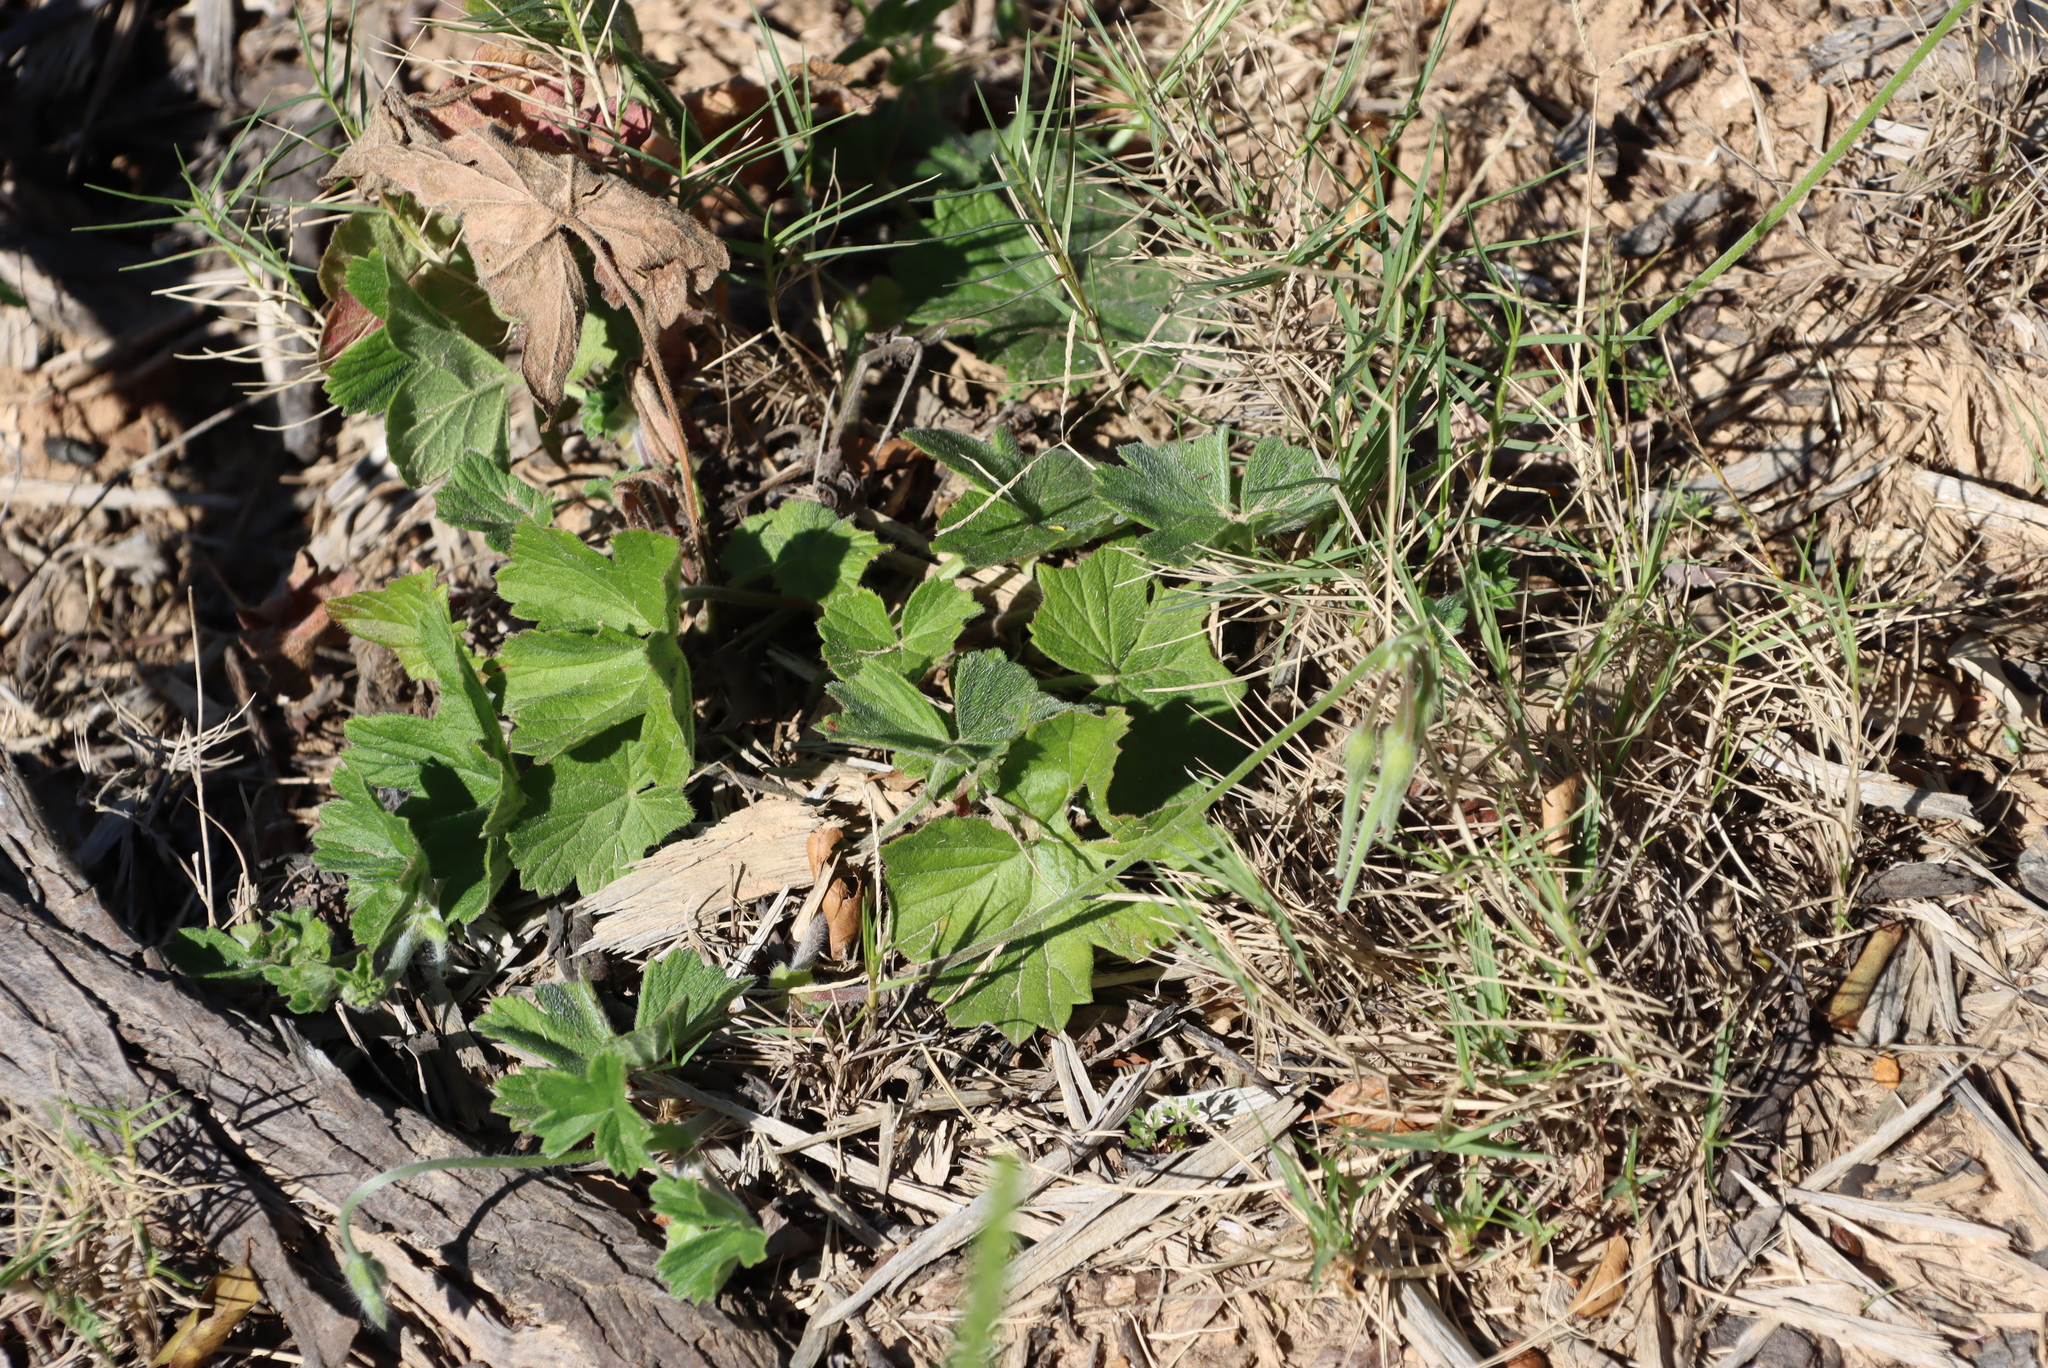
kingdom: Plantae
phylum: Tracheophyta
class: Magnoliopsida
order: Geraniales
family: Geraniaceae
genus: Pelargonium
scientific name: Pelargonium alchemilloides
